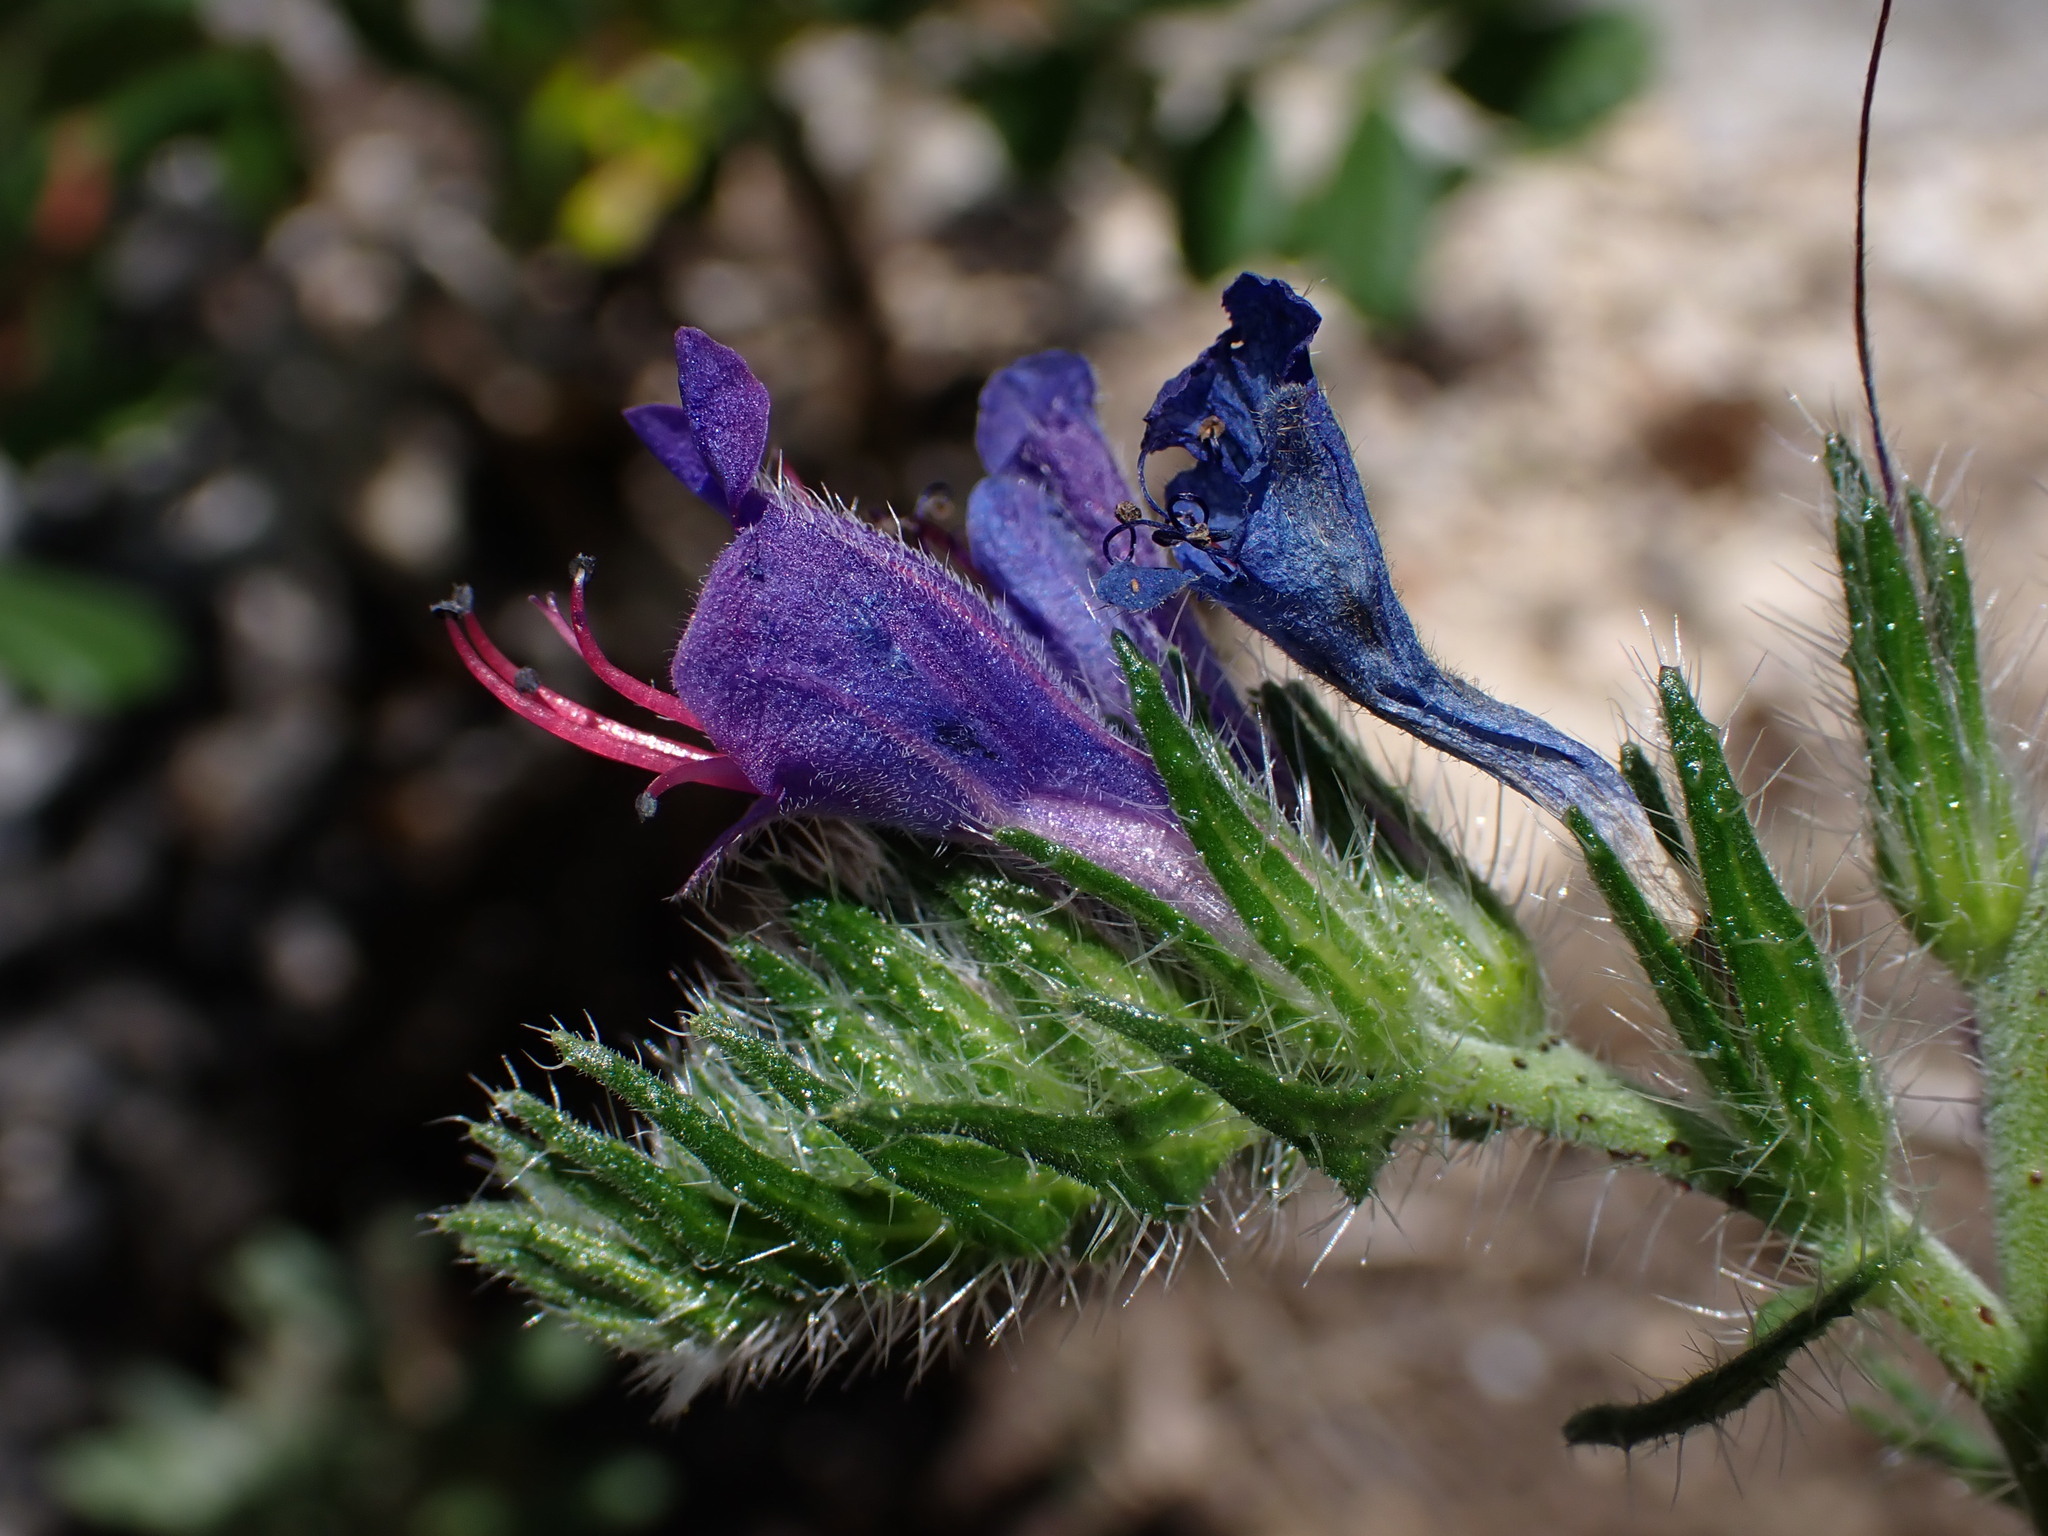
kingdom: Plantae
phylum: Tracheophyta
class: Magnoliopsida
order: Boraginales
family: Boraginaceae
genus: Echium
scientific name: Echium vulgare
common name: Common viper's bugloss
